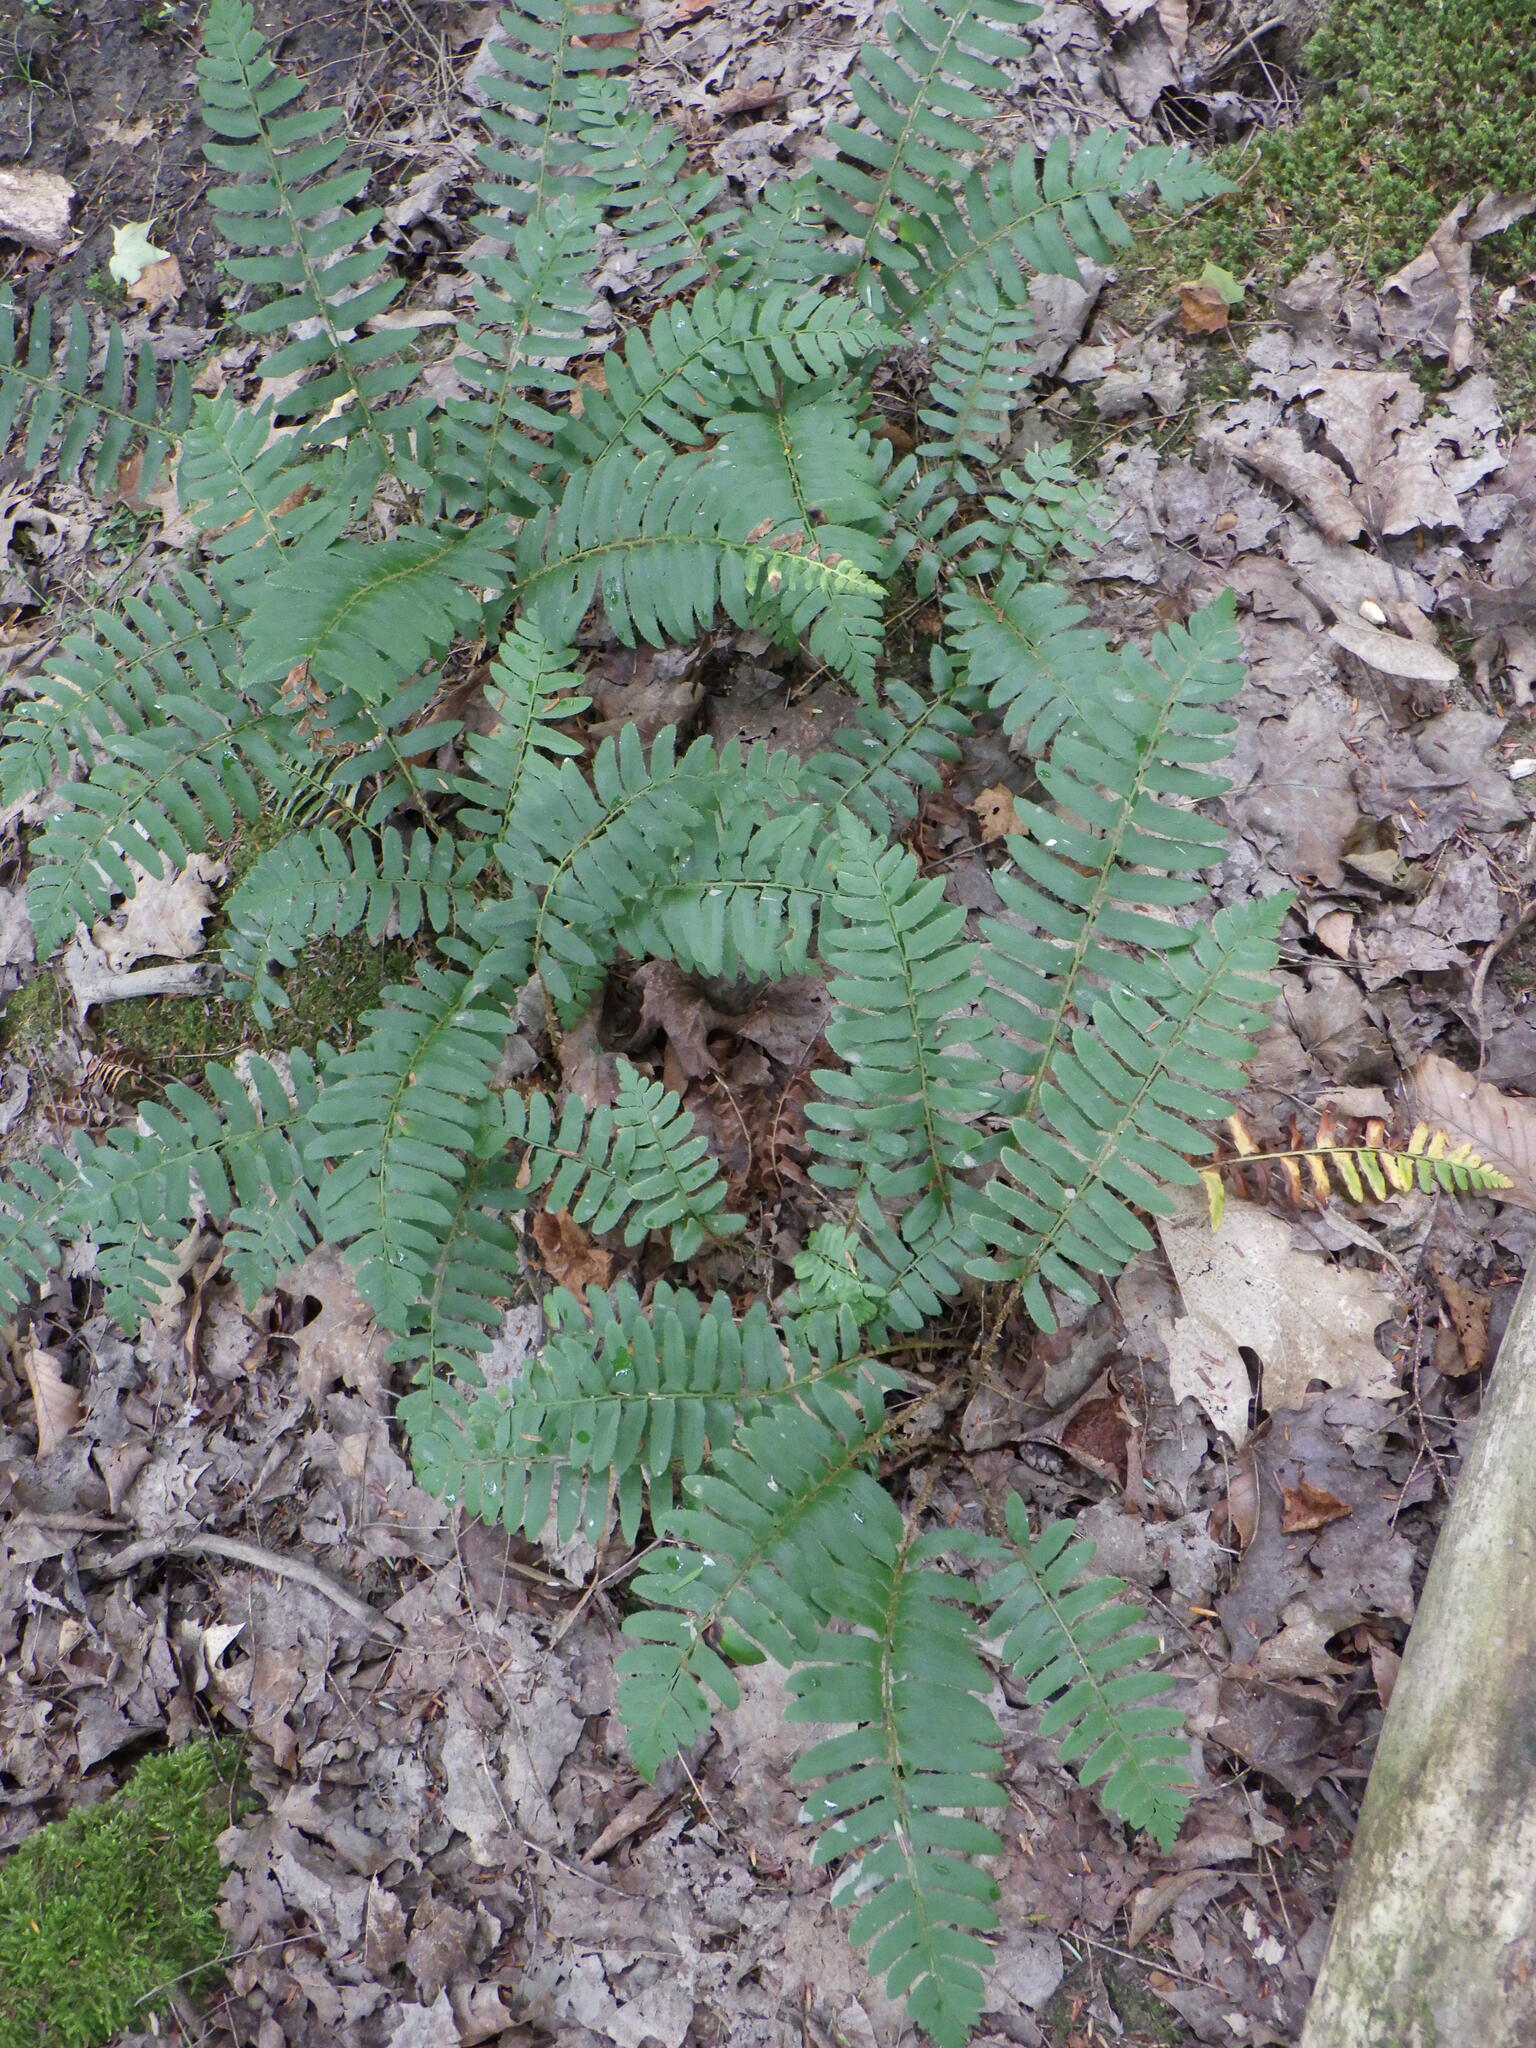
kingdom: Plantae
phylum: Tracheophyta
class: Polypodiopsida
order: Polypodiales
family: Dryopteridaceae
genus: Polystichum
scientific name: Polystichum acrostichoides
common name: Christmas fern
